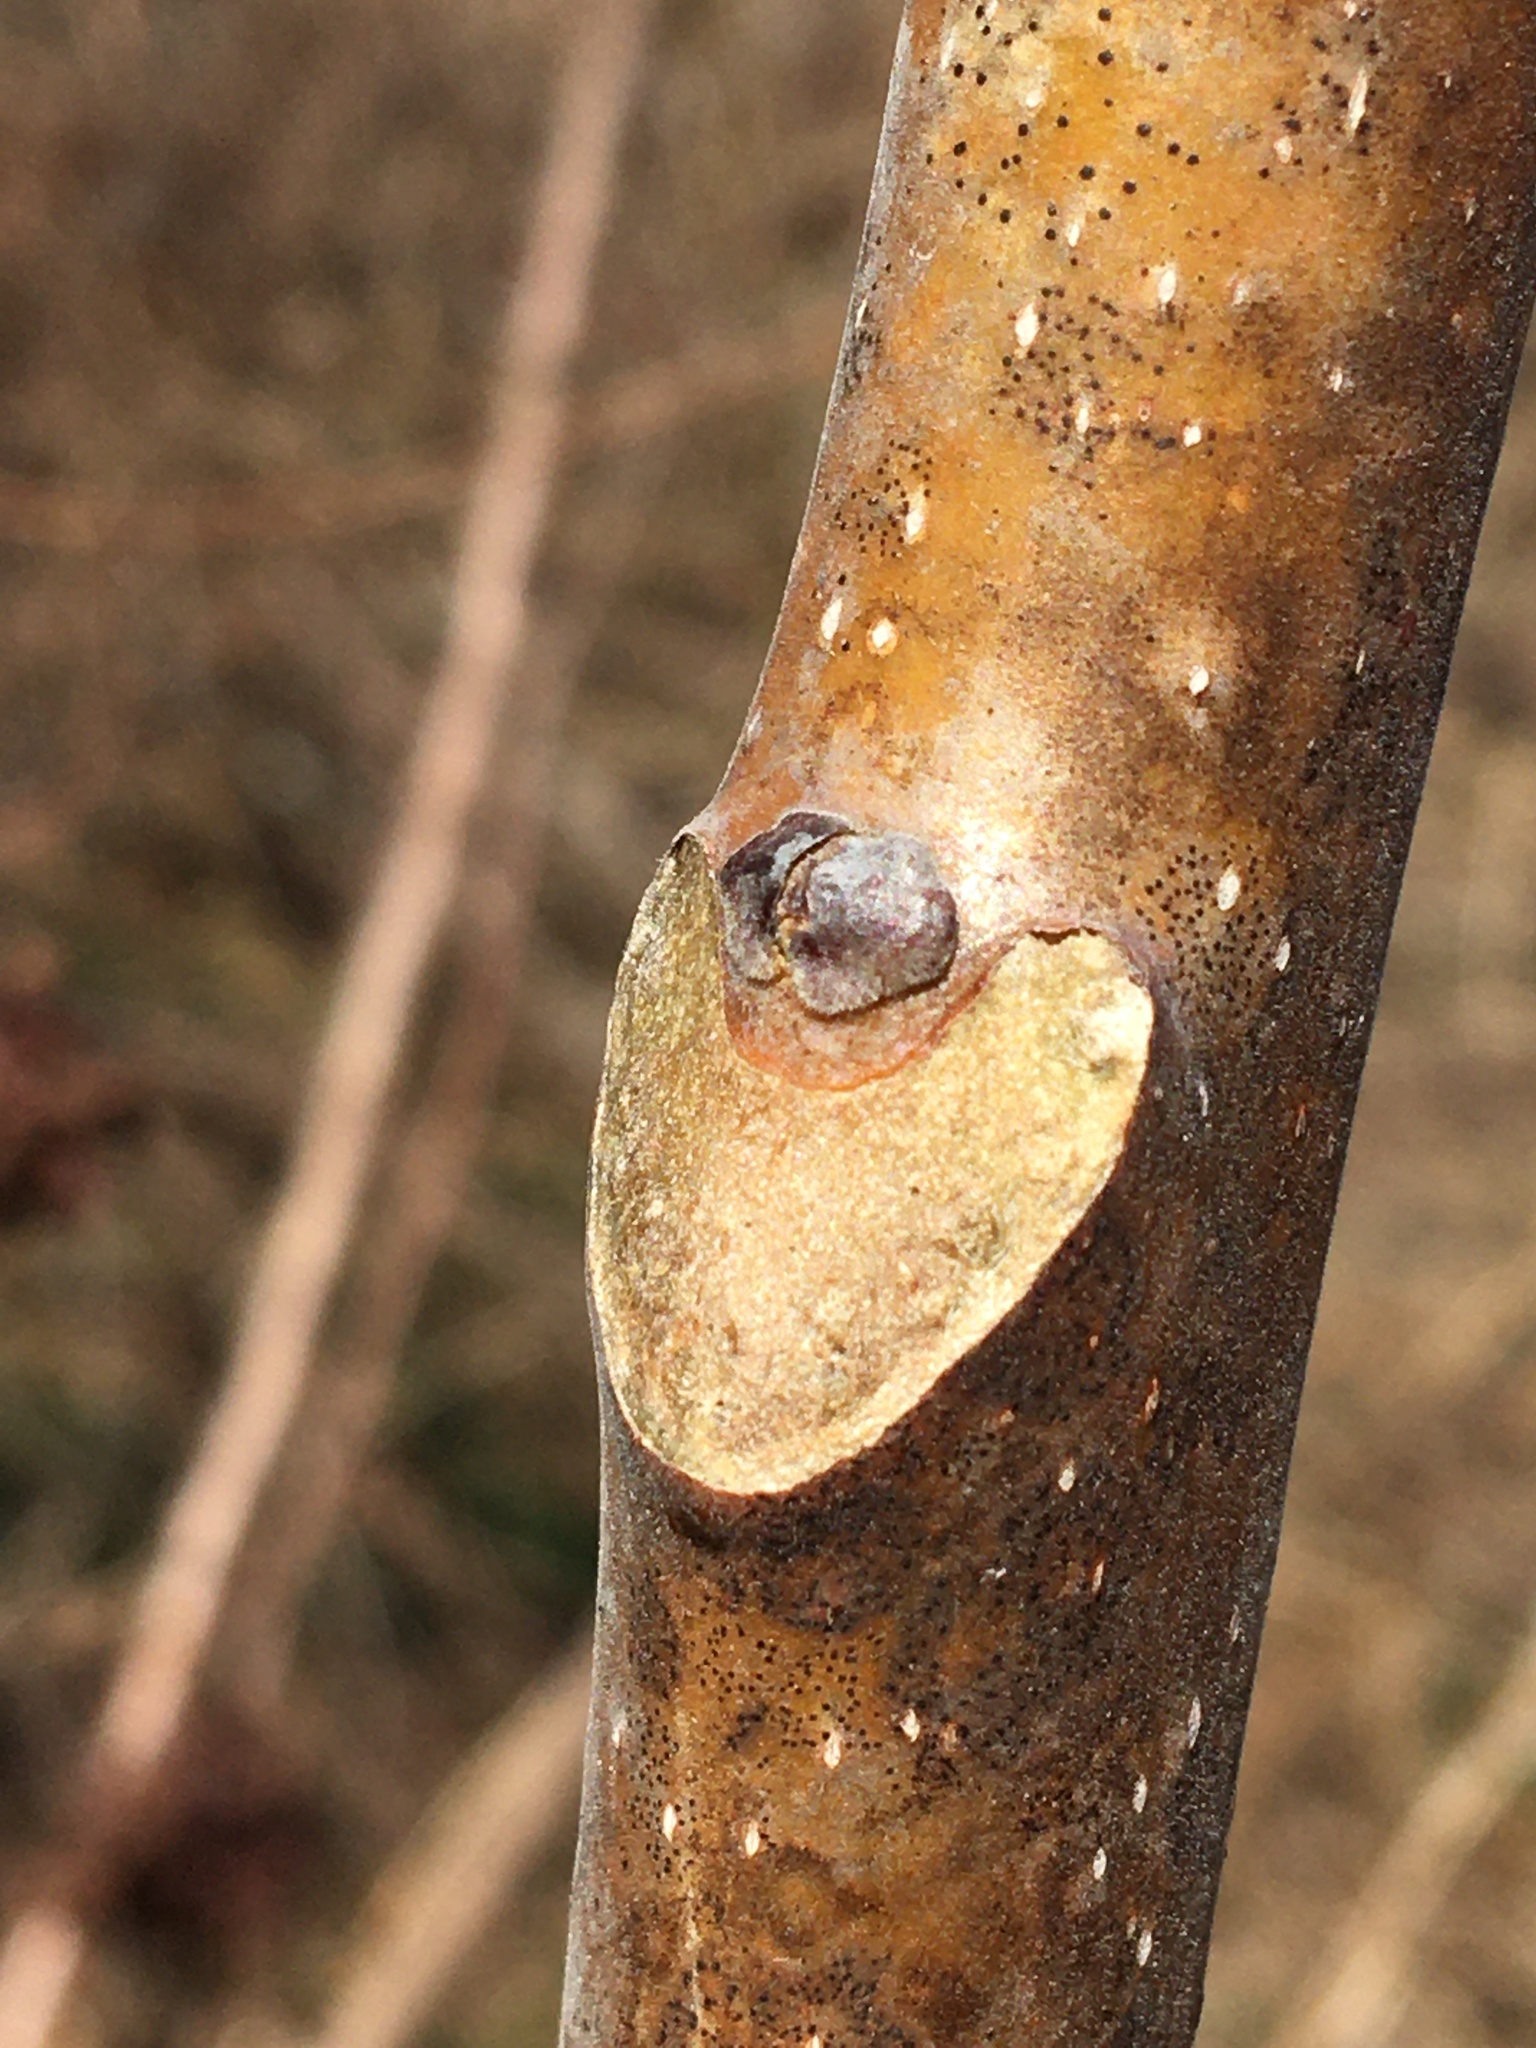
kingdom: Plantae
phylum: Tracheophyta
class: Magnoliopsida
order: Sapindales
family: Simaroubaceae
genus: Ailanthus
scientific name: Ailanthus altissima
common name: Tree-of-heaven
